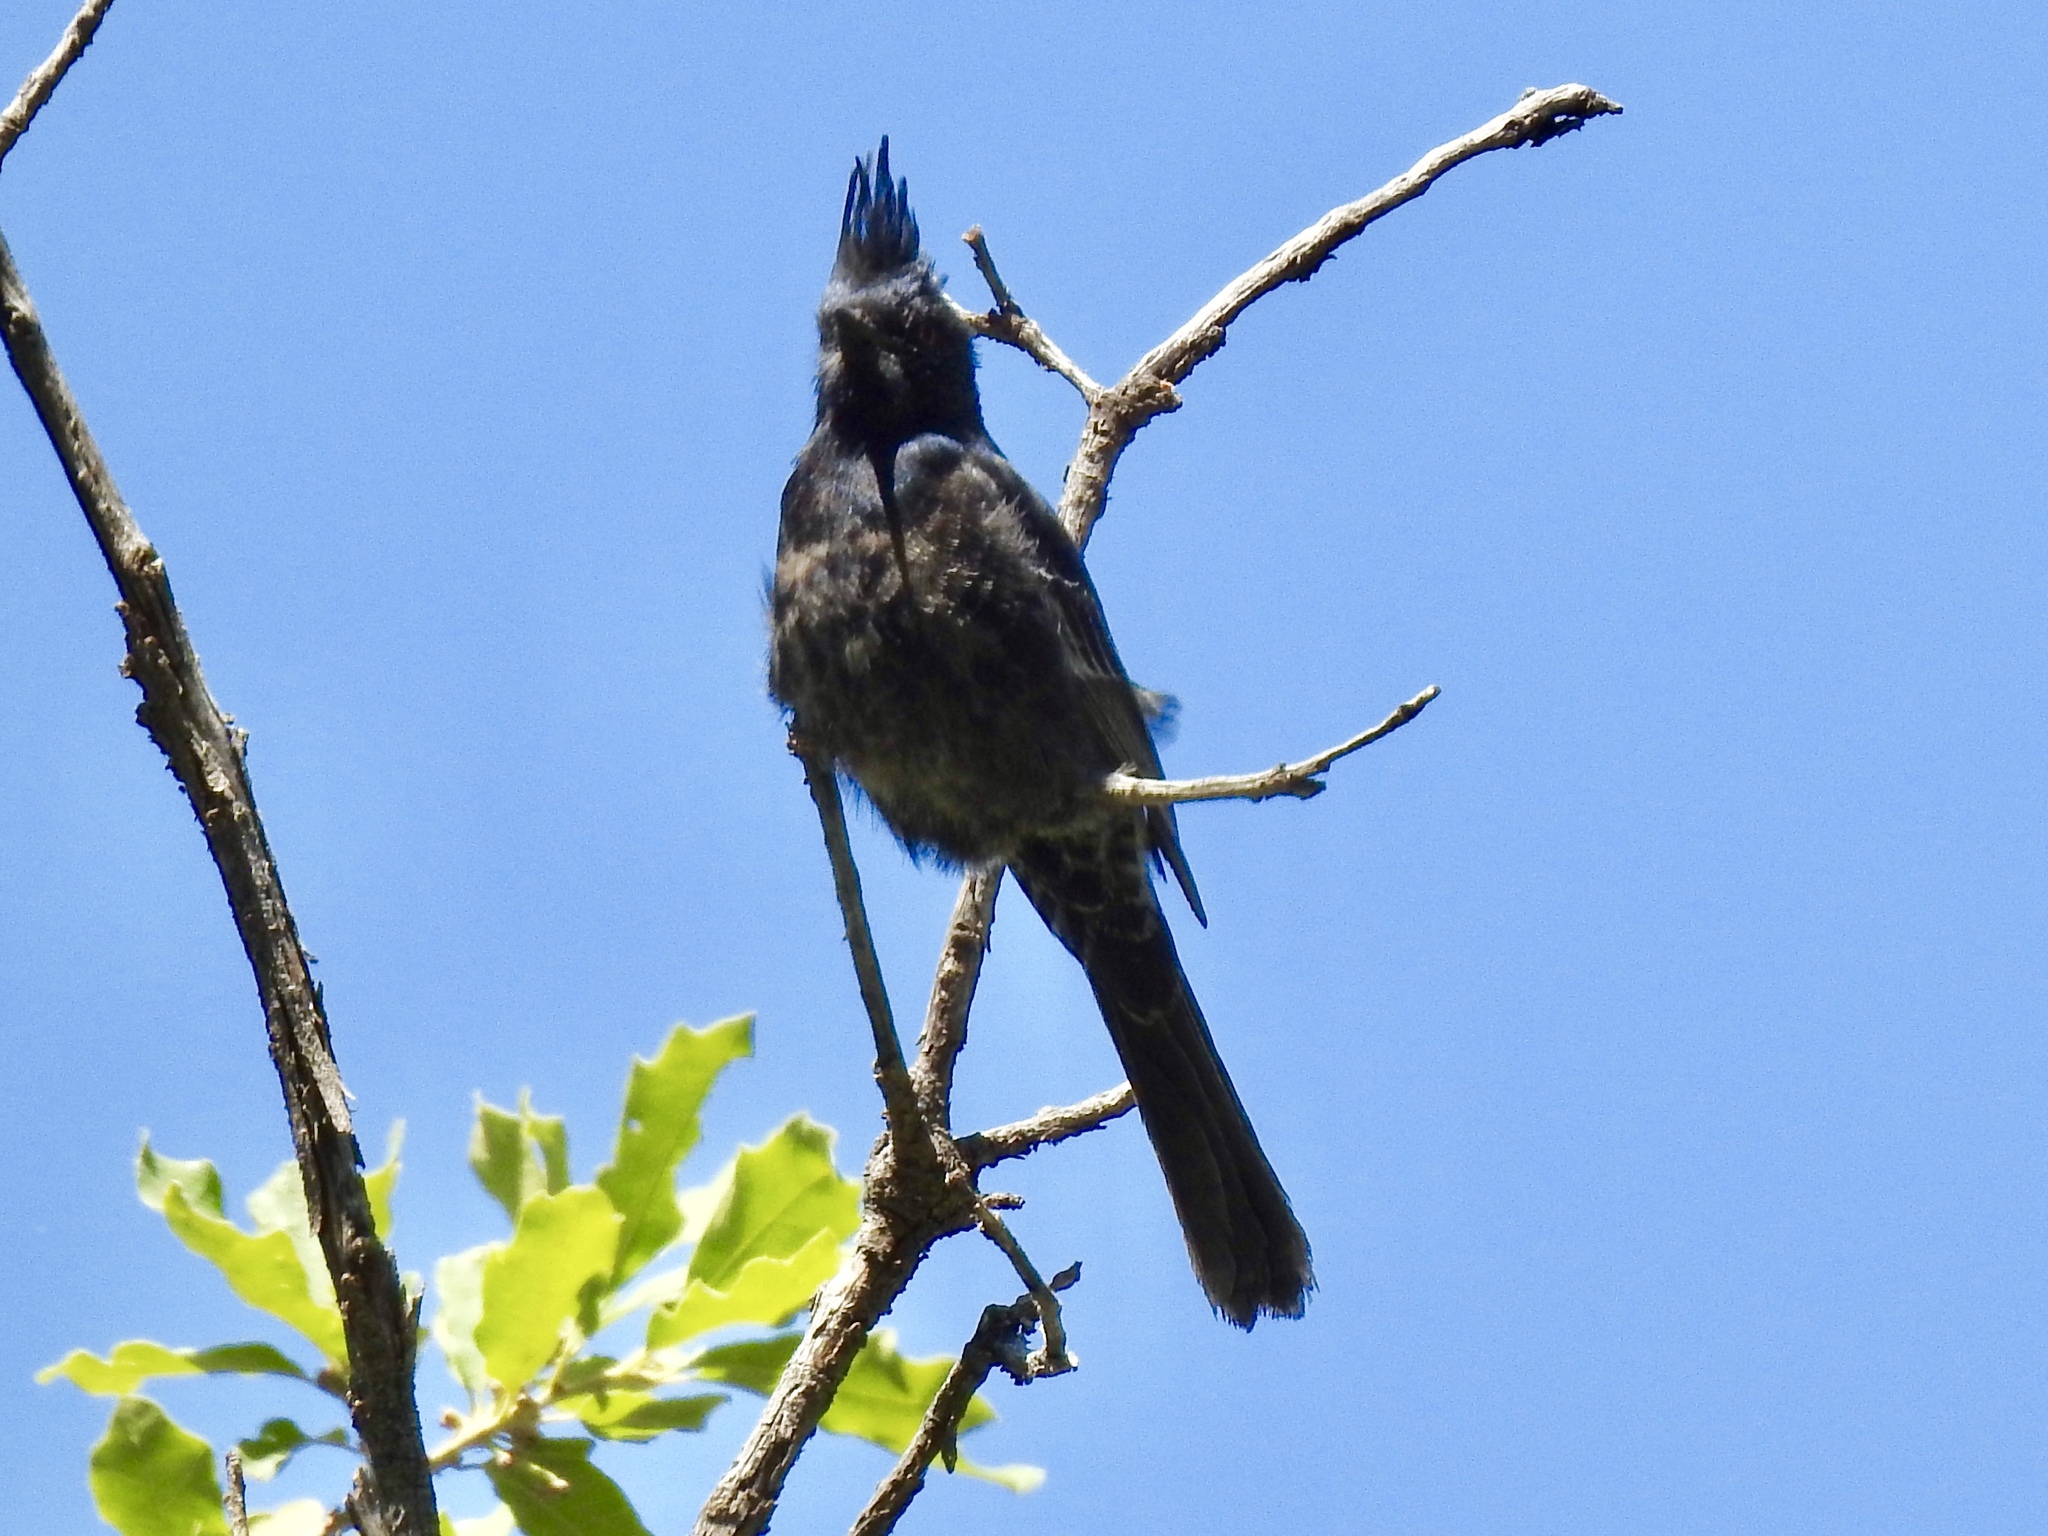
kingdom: Animalia
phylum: Chordata
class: Aves
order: Passeriformes
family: Ptilogonatidae
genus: Phainopepla
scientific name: Phainopepla nitens
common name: Phainopepla
